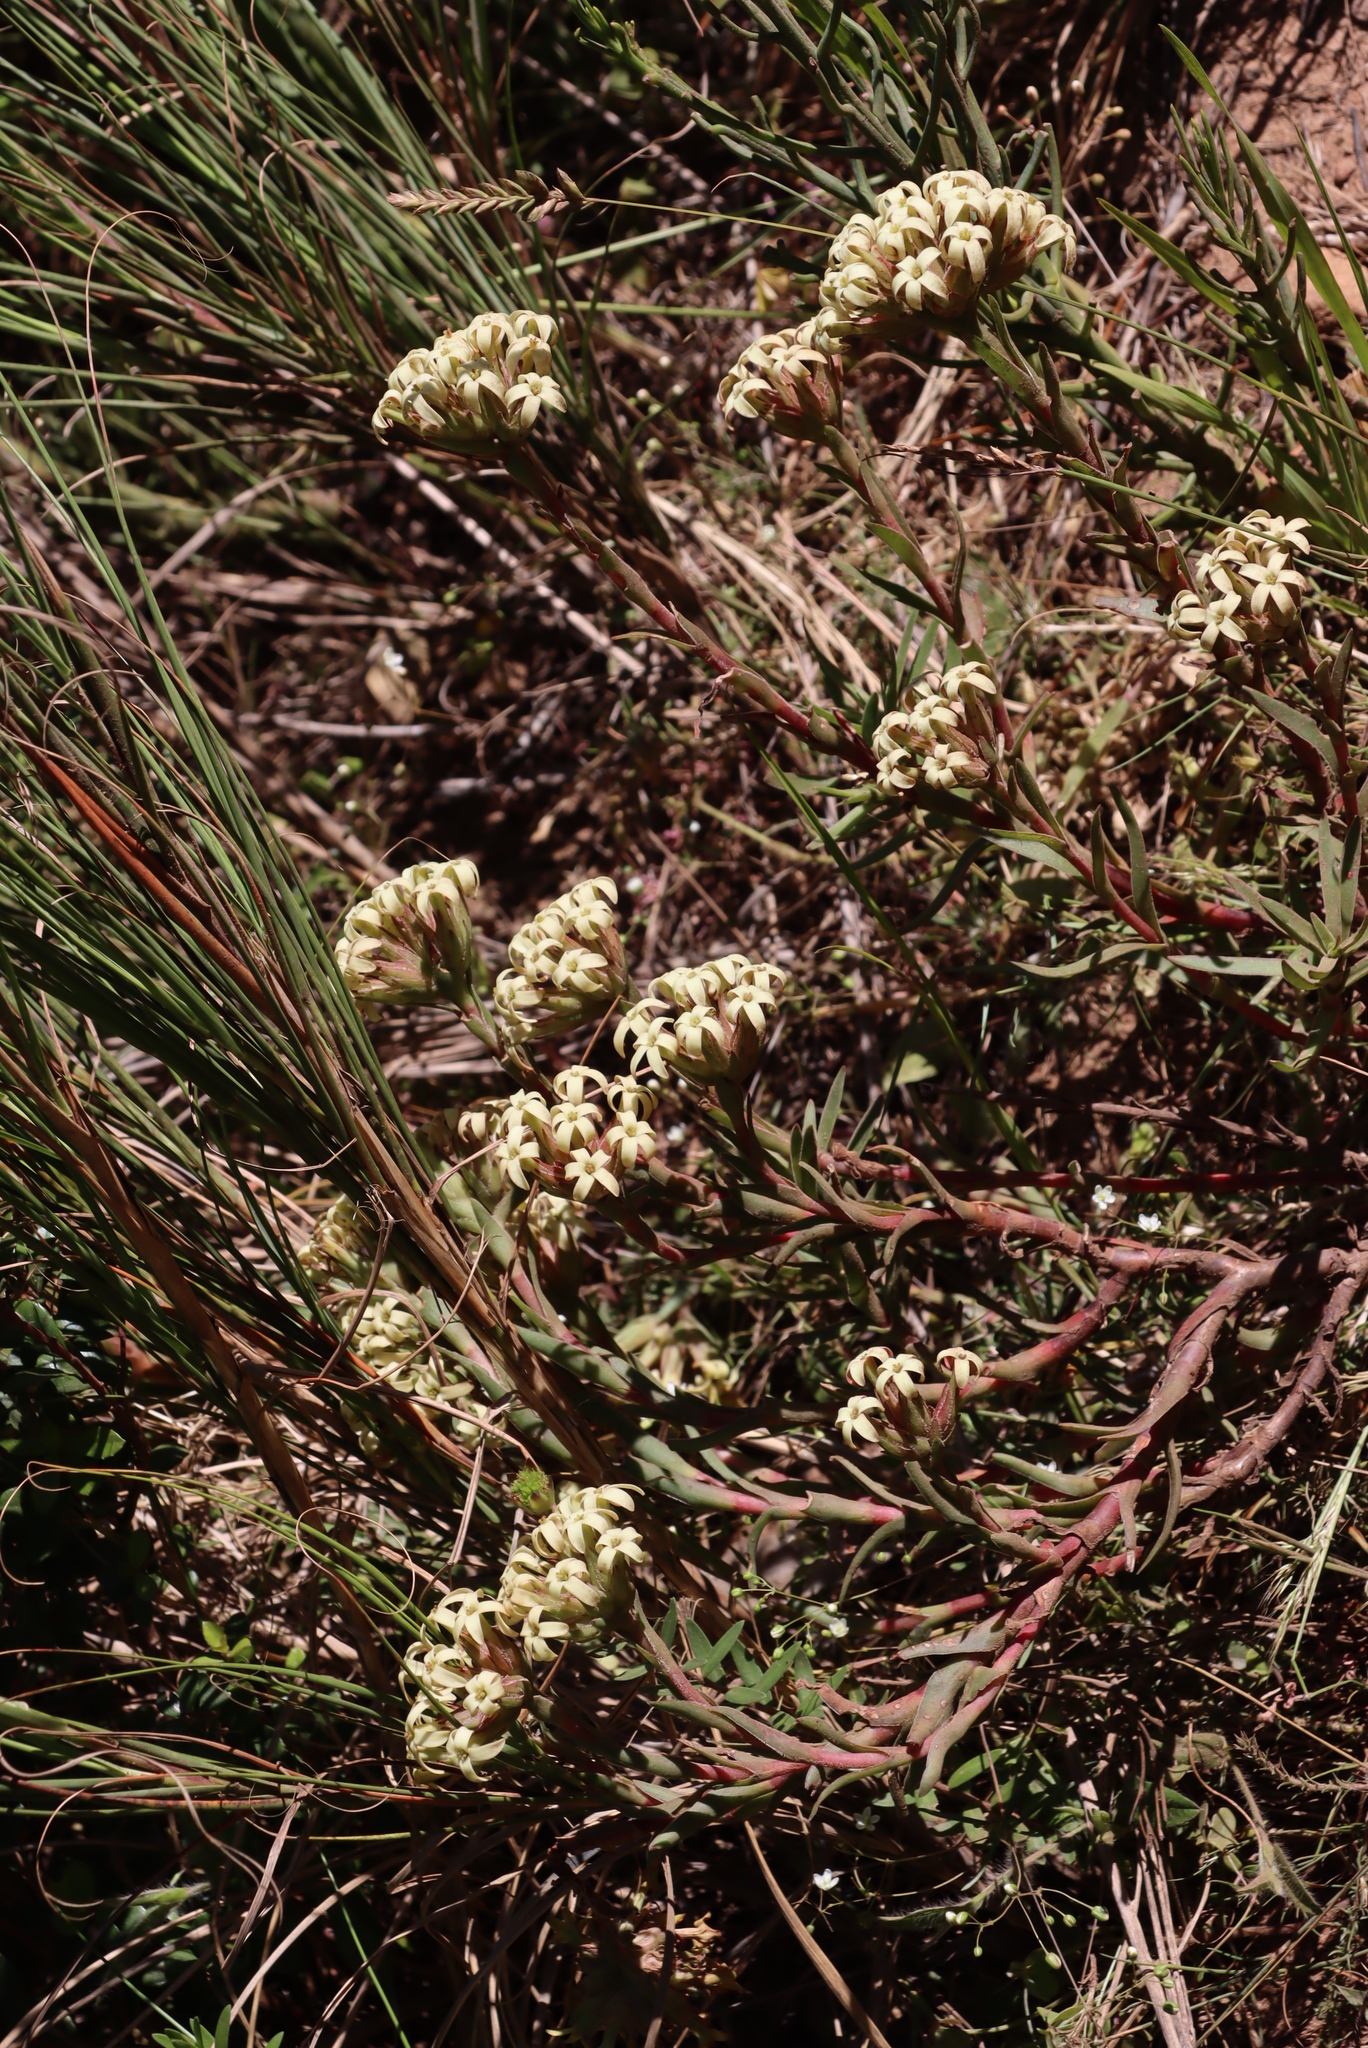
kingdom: Plantae
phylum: Tracheophyta
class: Magnoliopsida
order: Saxifragales
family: Crassulaceae
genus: Crassula
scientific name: Crassula fascicularis
